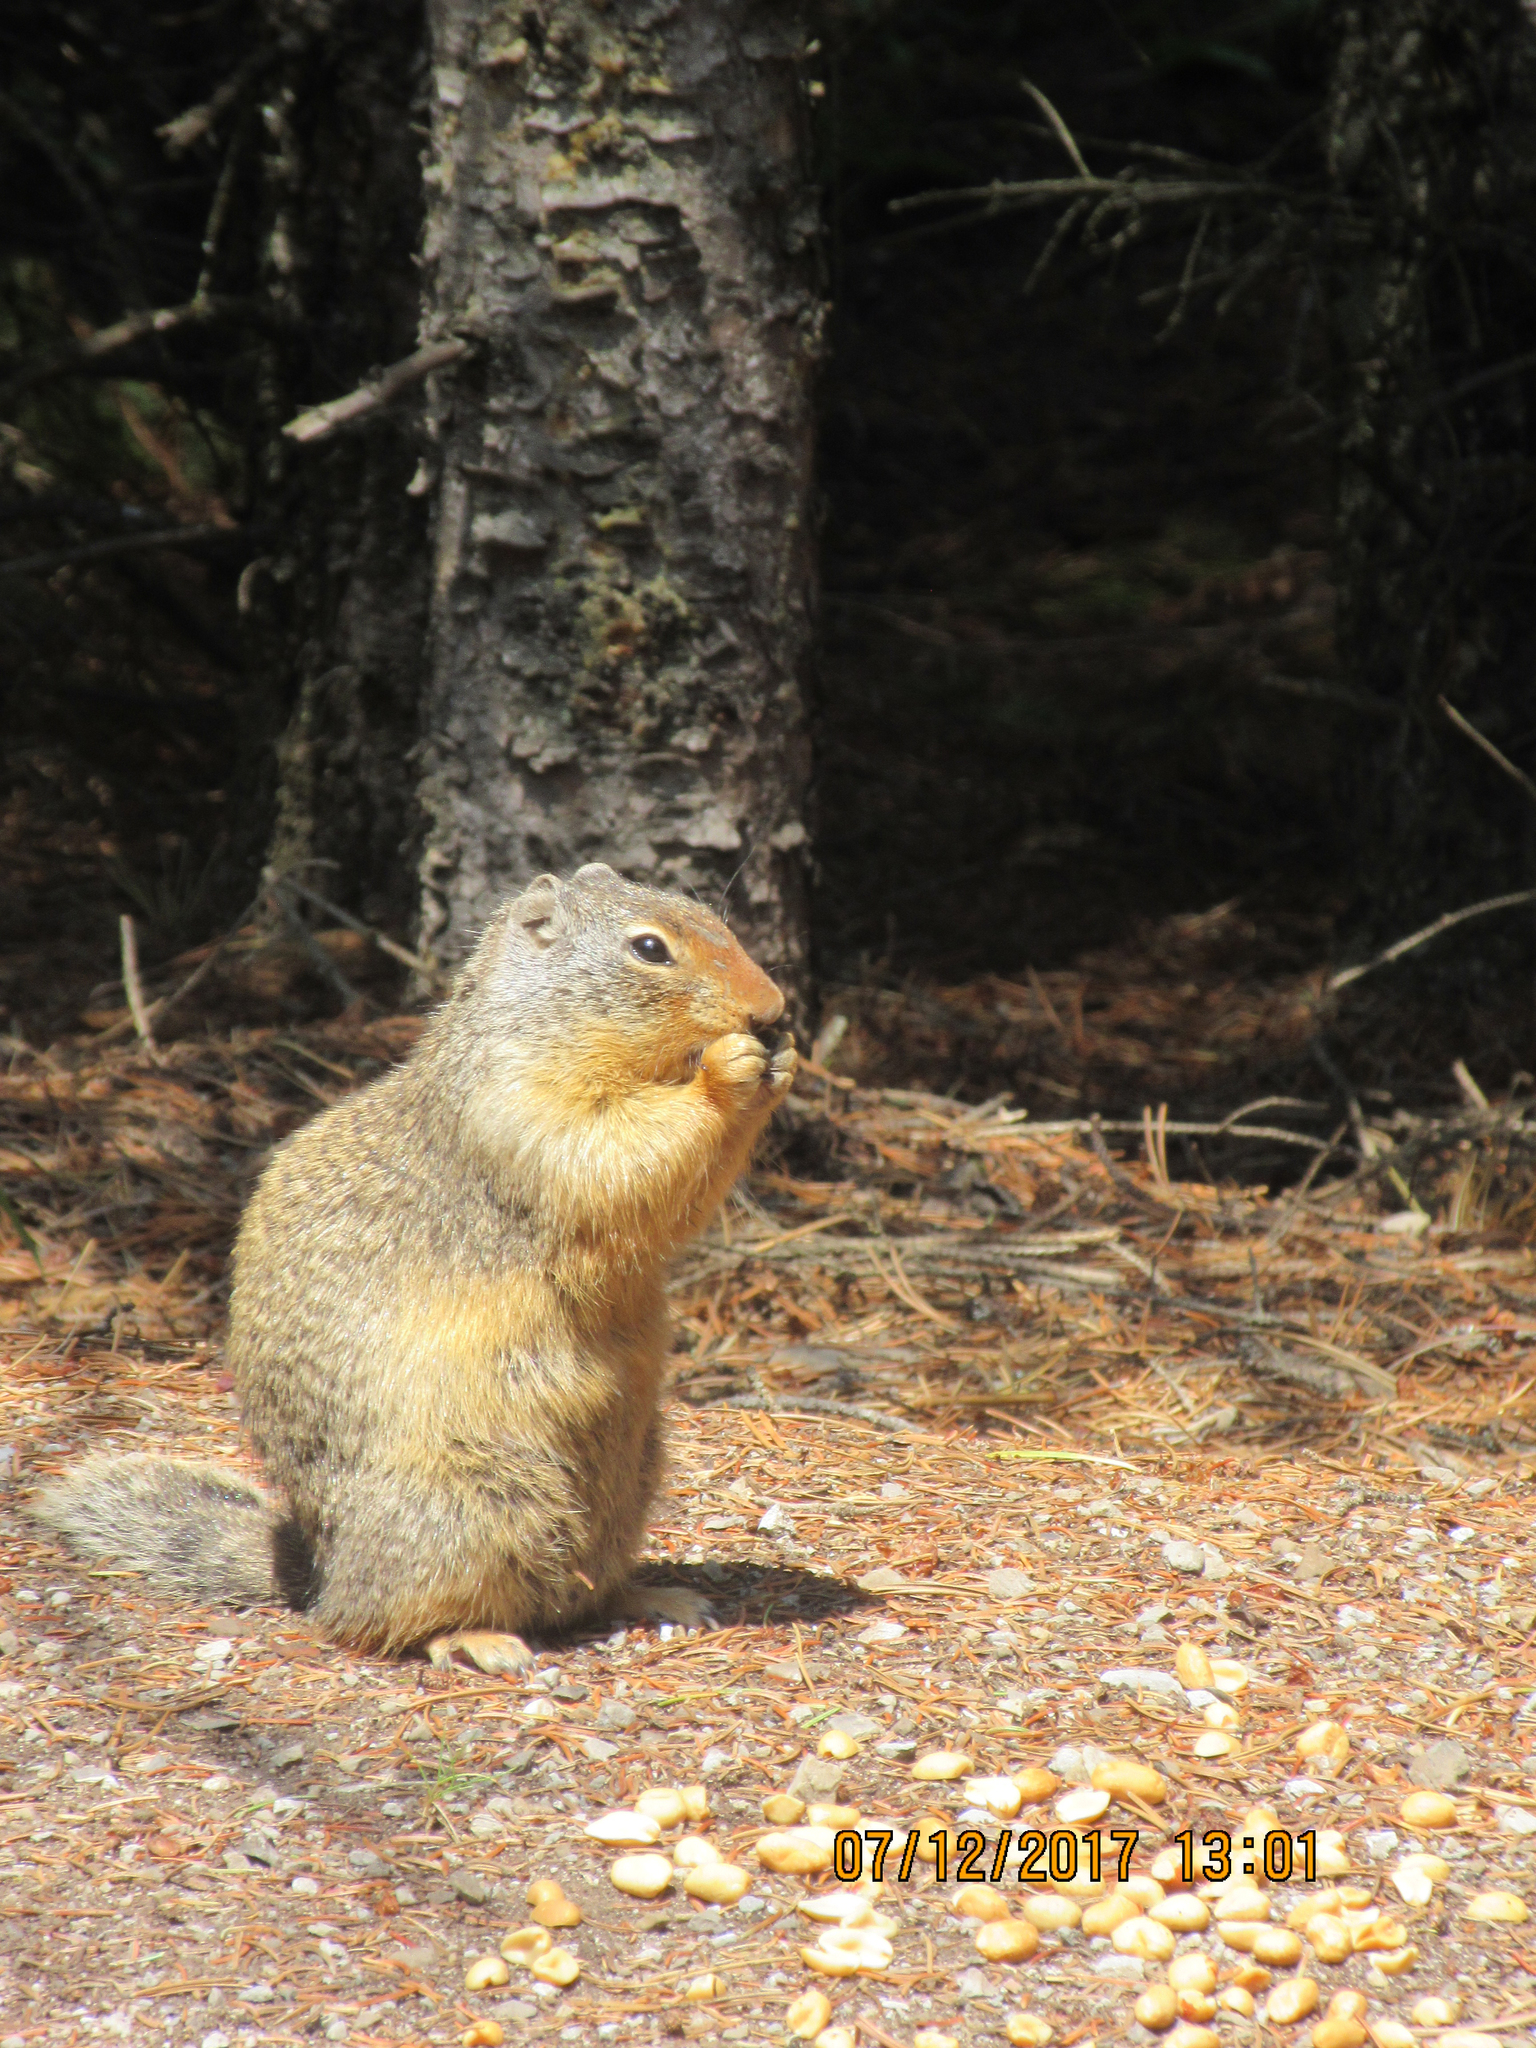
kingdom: Animalia
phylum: Chordata
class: Mammalia
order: Rodentia
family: Sciuridae
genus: Urocitellus
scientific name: Urocitellus columbianus
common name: Columbian ground squirrel
